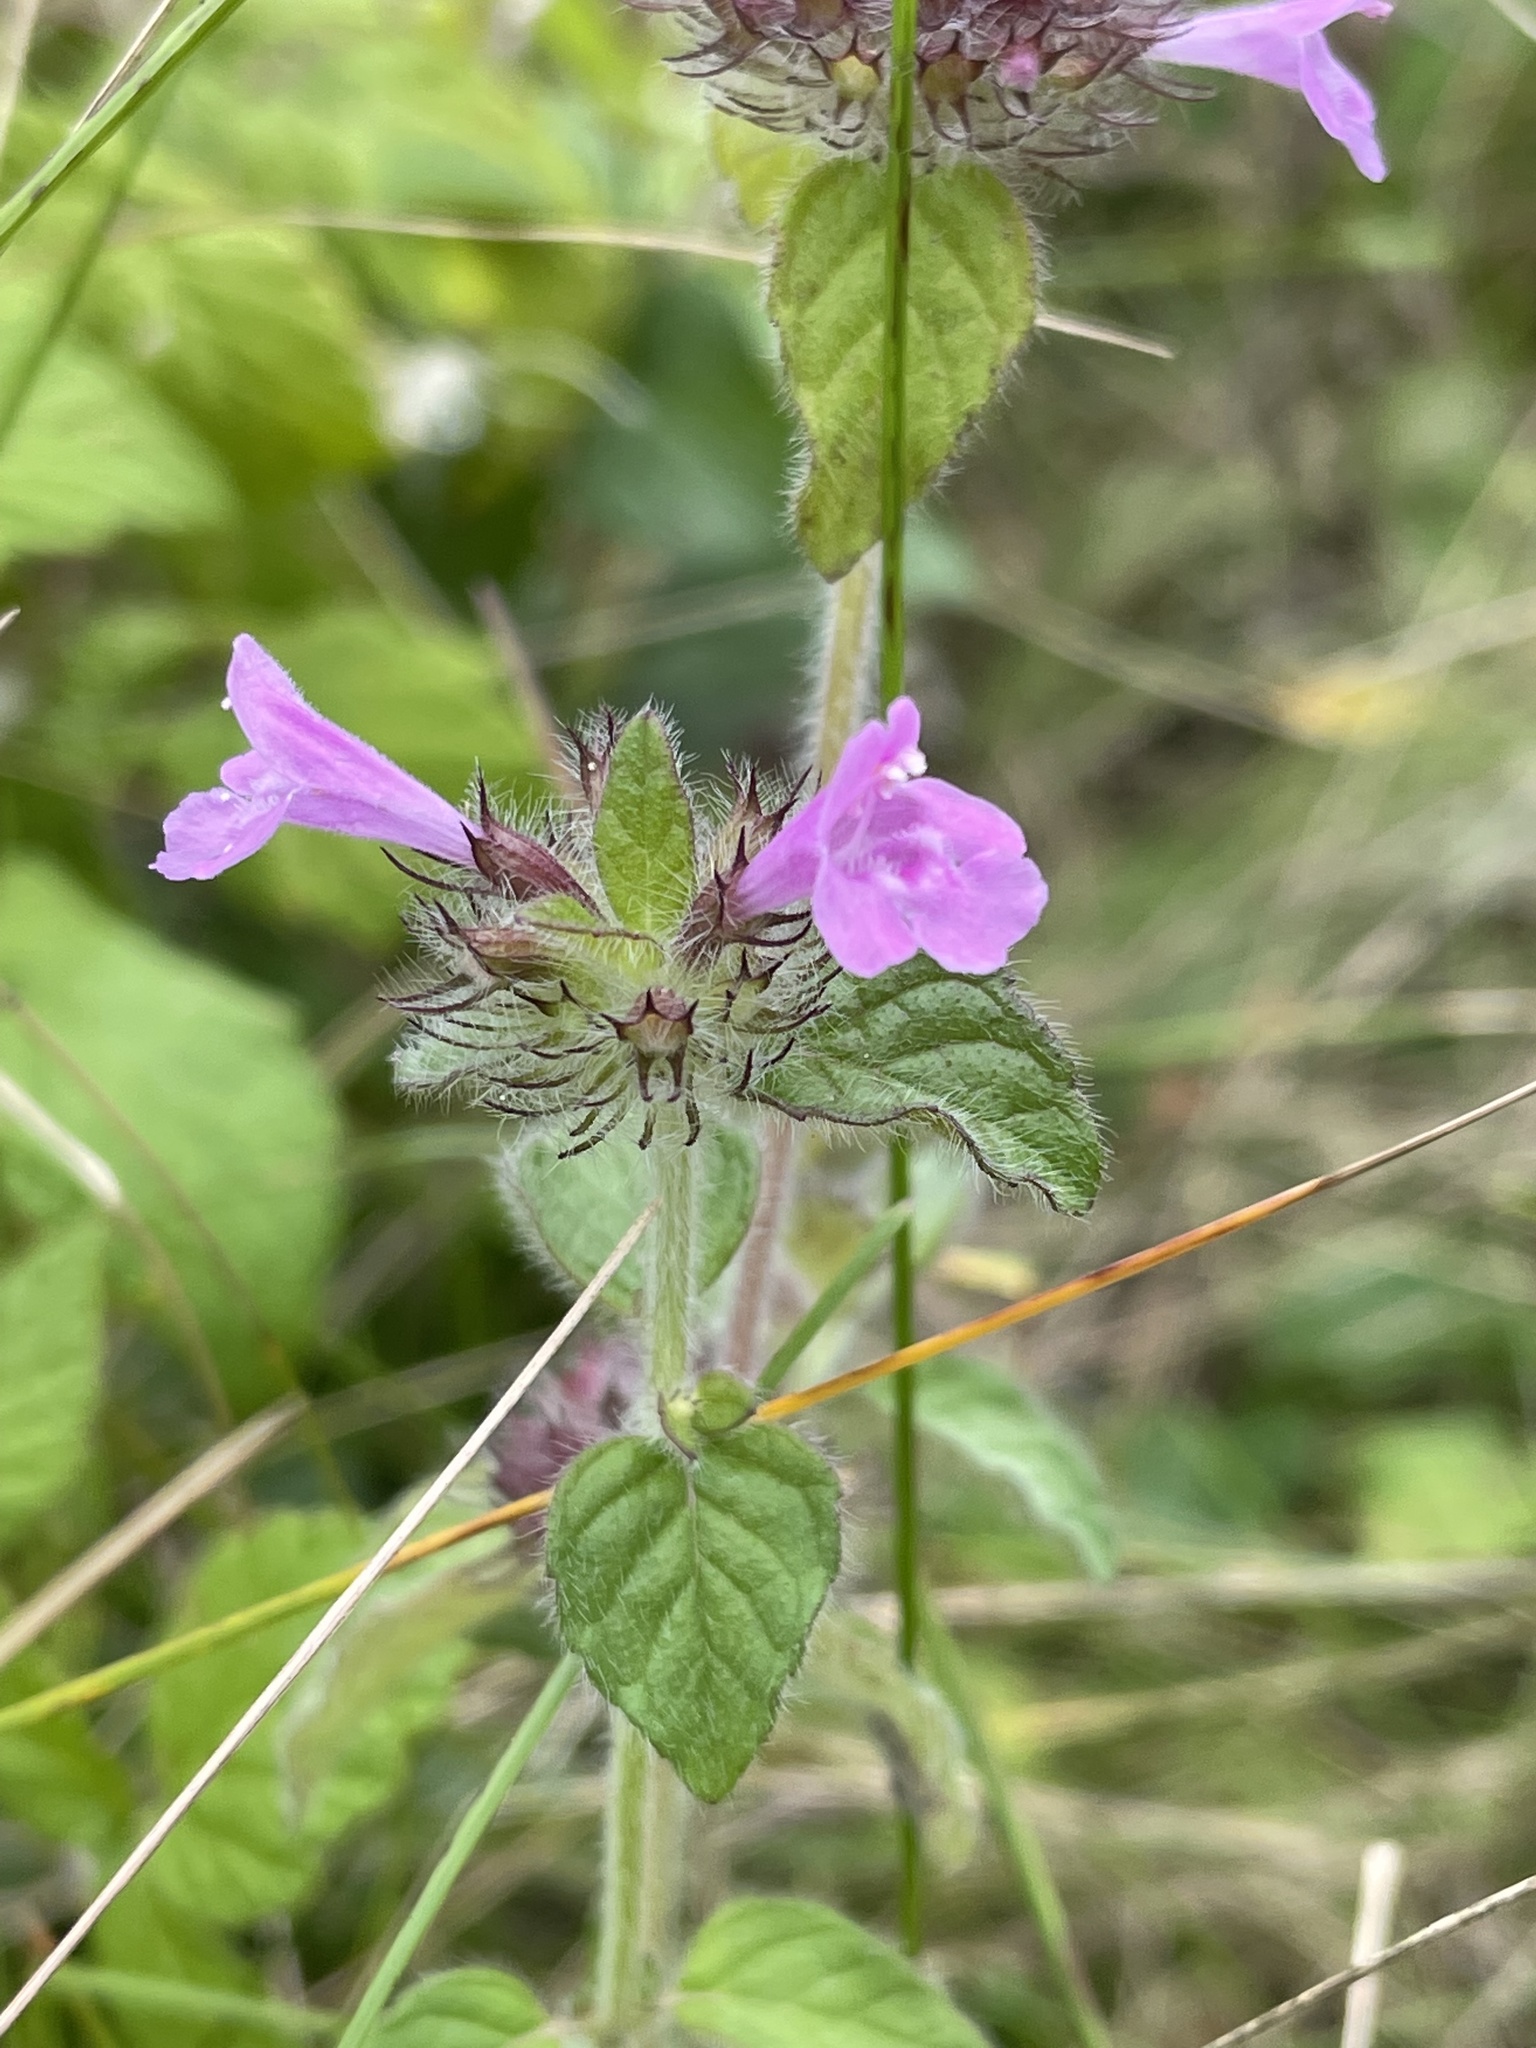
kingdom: Plantae
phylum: Tracheophyta
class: Magnoliopsida
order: Lamiales
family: Lamiaceae
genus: Clinopodium
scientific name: Clinopodium vulgare
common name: Wild basil
